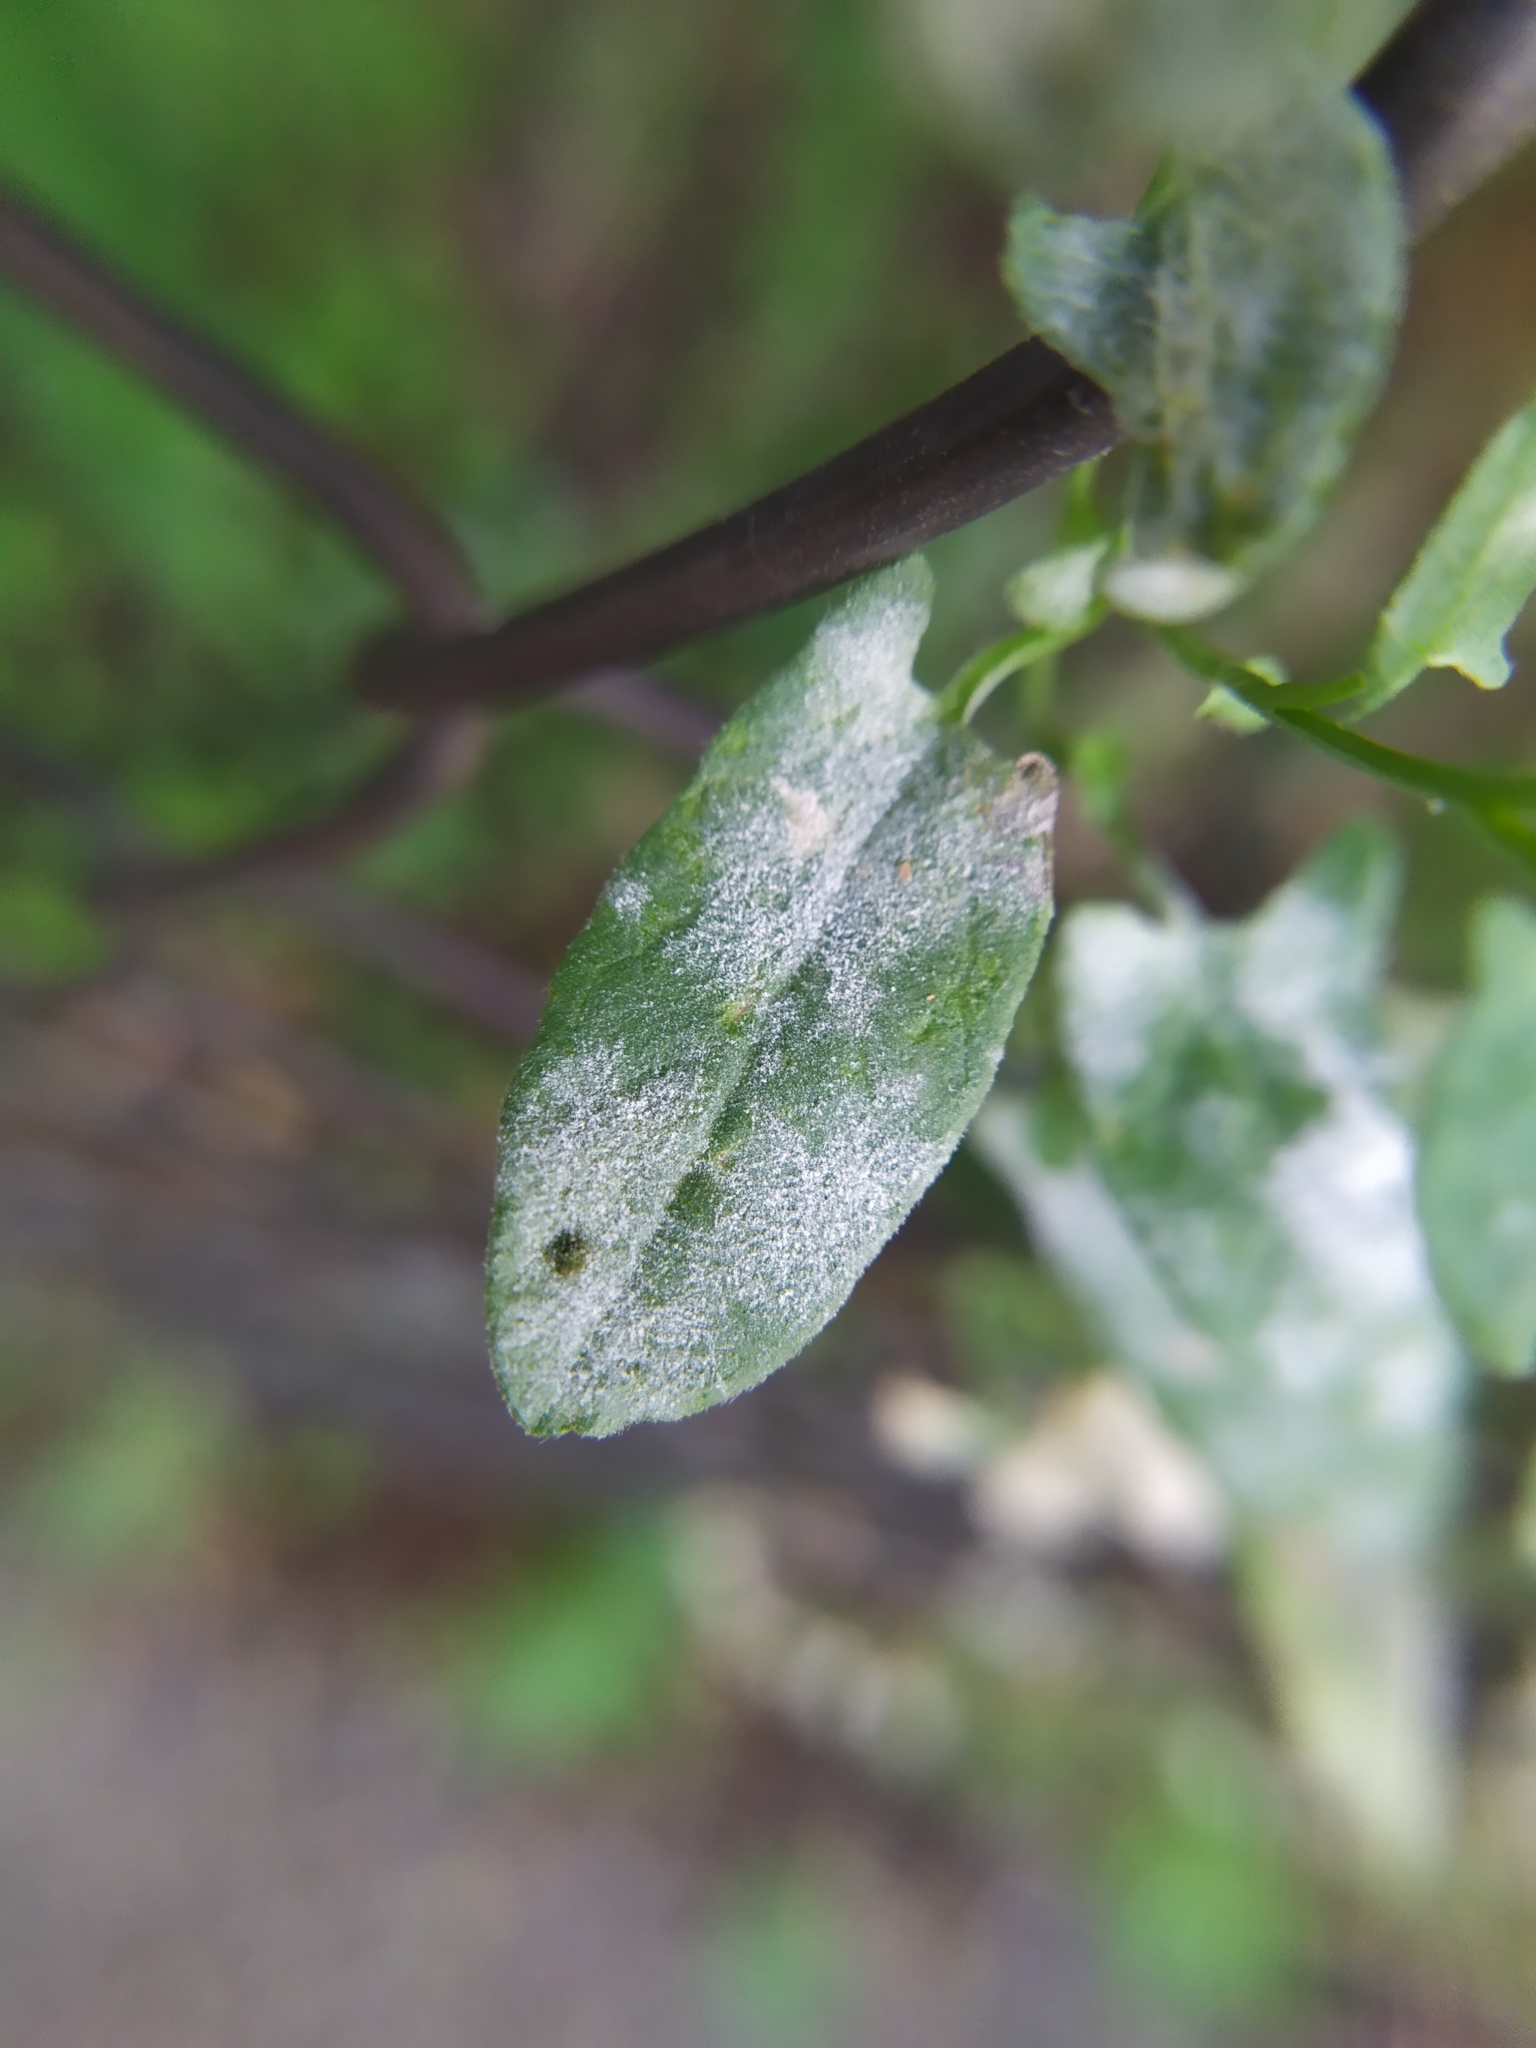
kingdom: Plantae
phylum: Tracheophyta
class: Magnoliopsida
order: Solanales
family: Convolvulaceae
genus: Convolvulus
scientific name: Convolvulus arvensis
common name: Field bindweed
